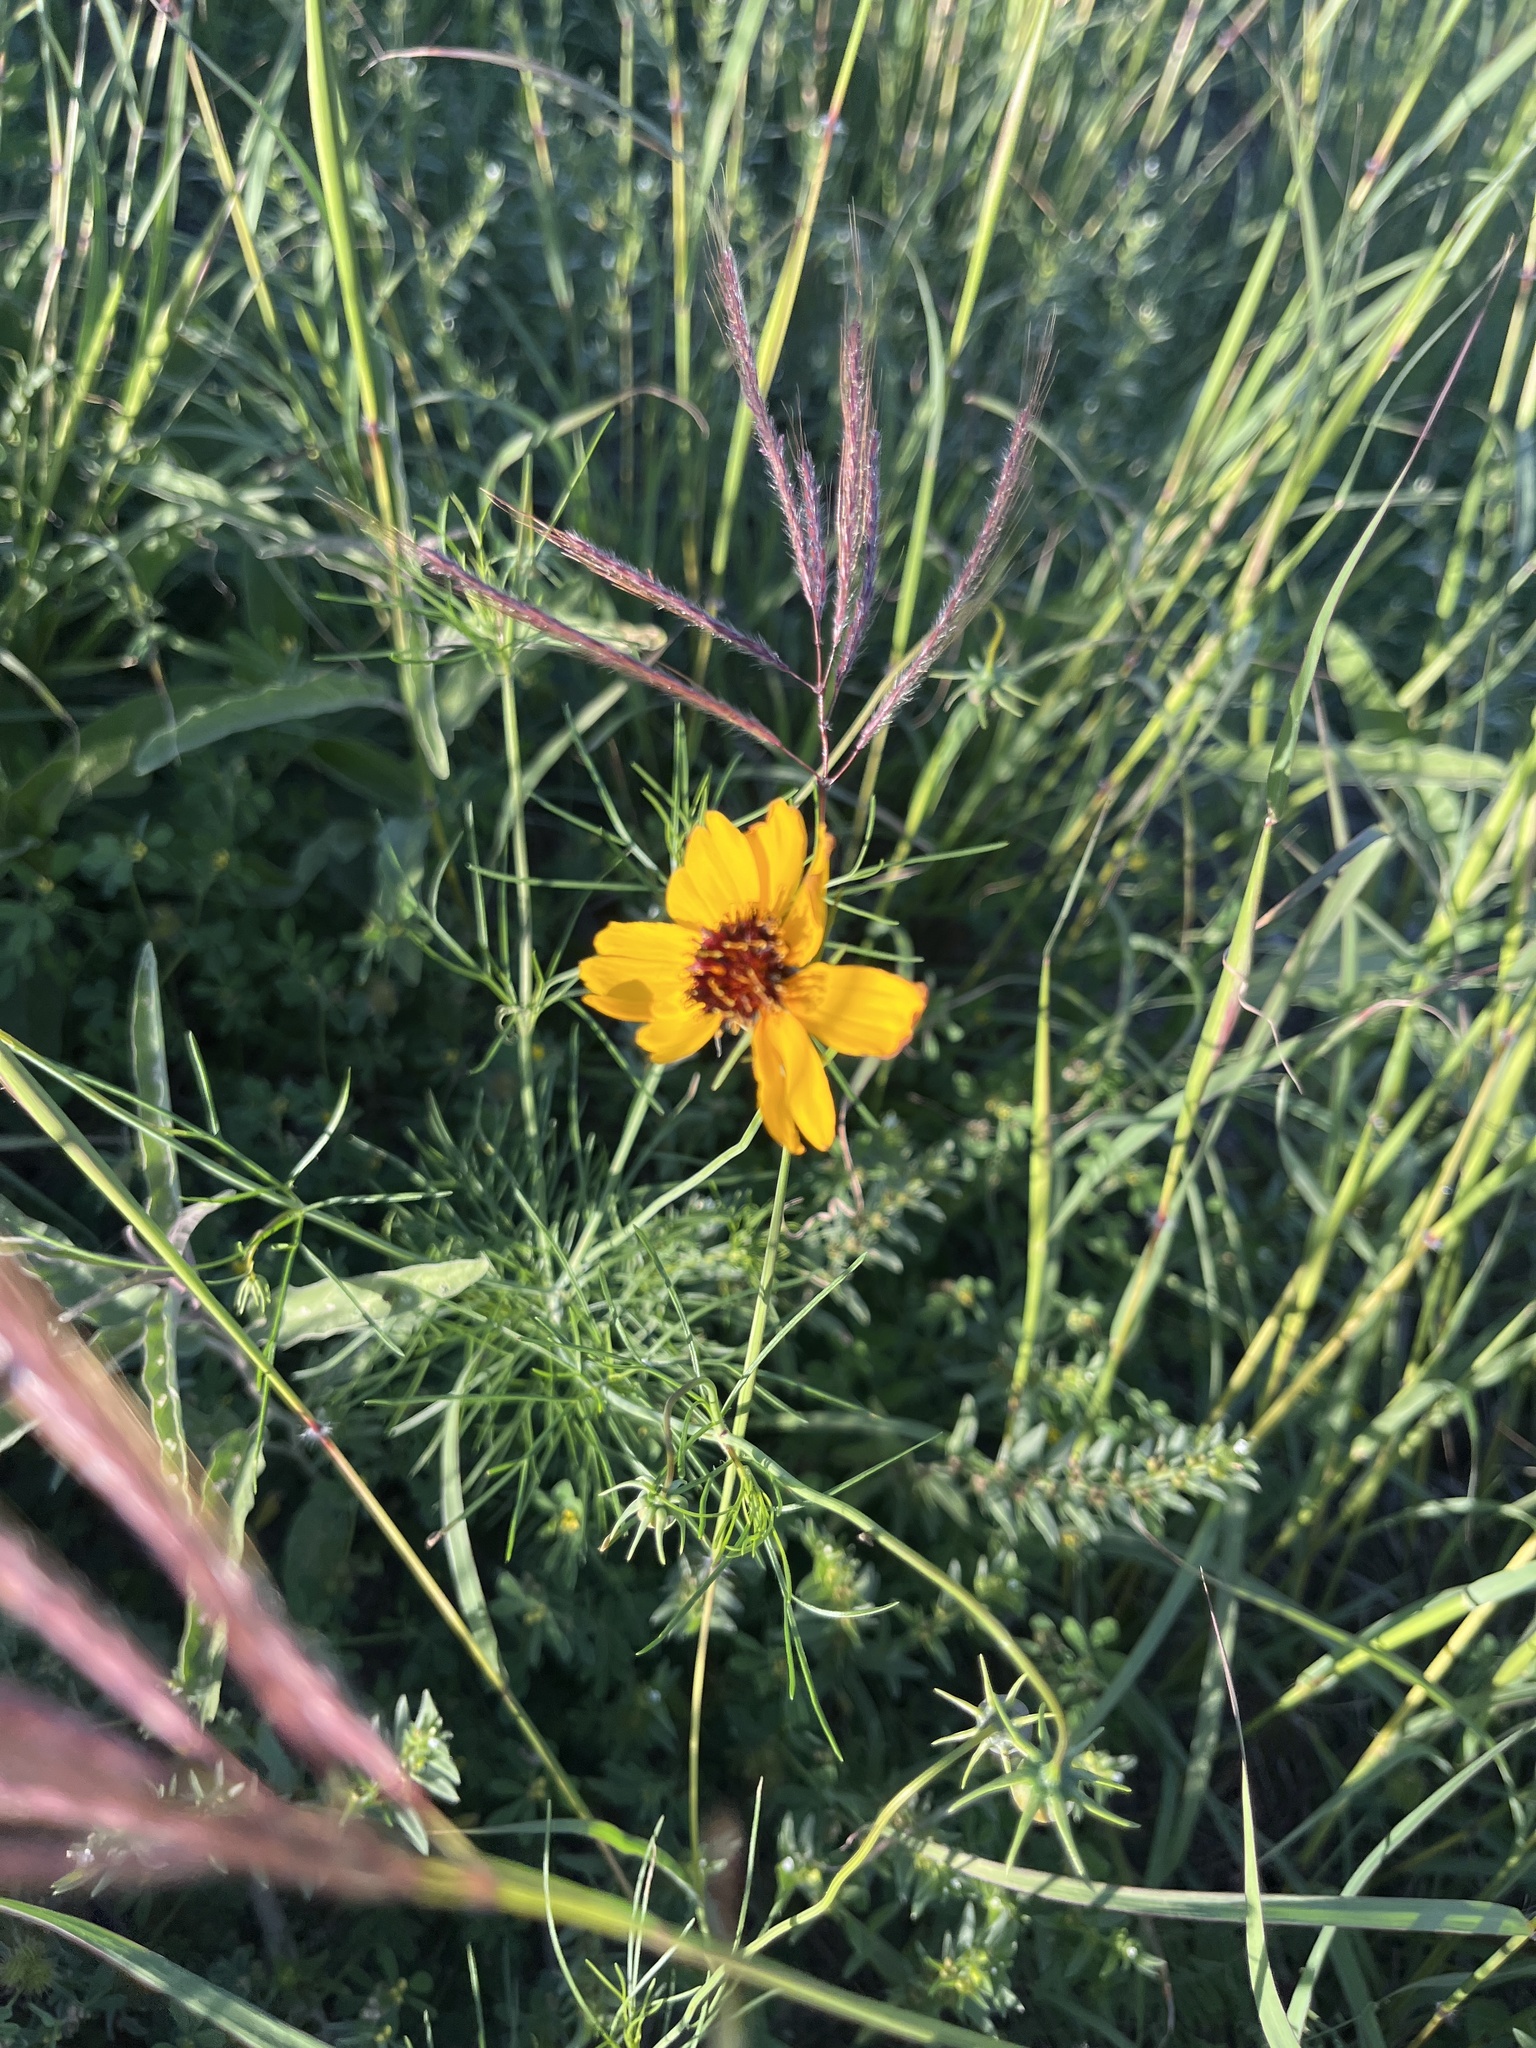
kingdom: Plantae
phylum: Tracheophyta
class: Magnoliopsida
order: Asterales
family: Asteraceae
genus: Thelesperma
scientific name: Thelesperma filifolium
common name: Stiff greenthread
